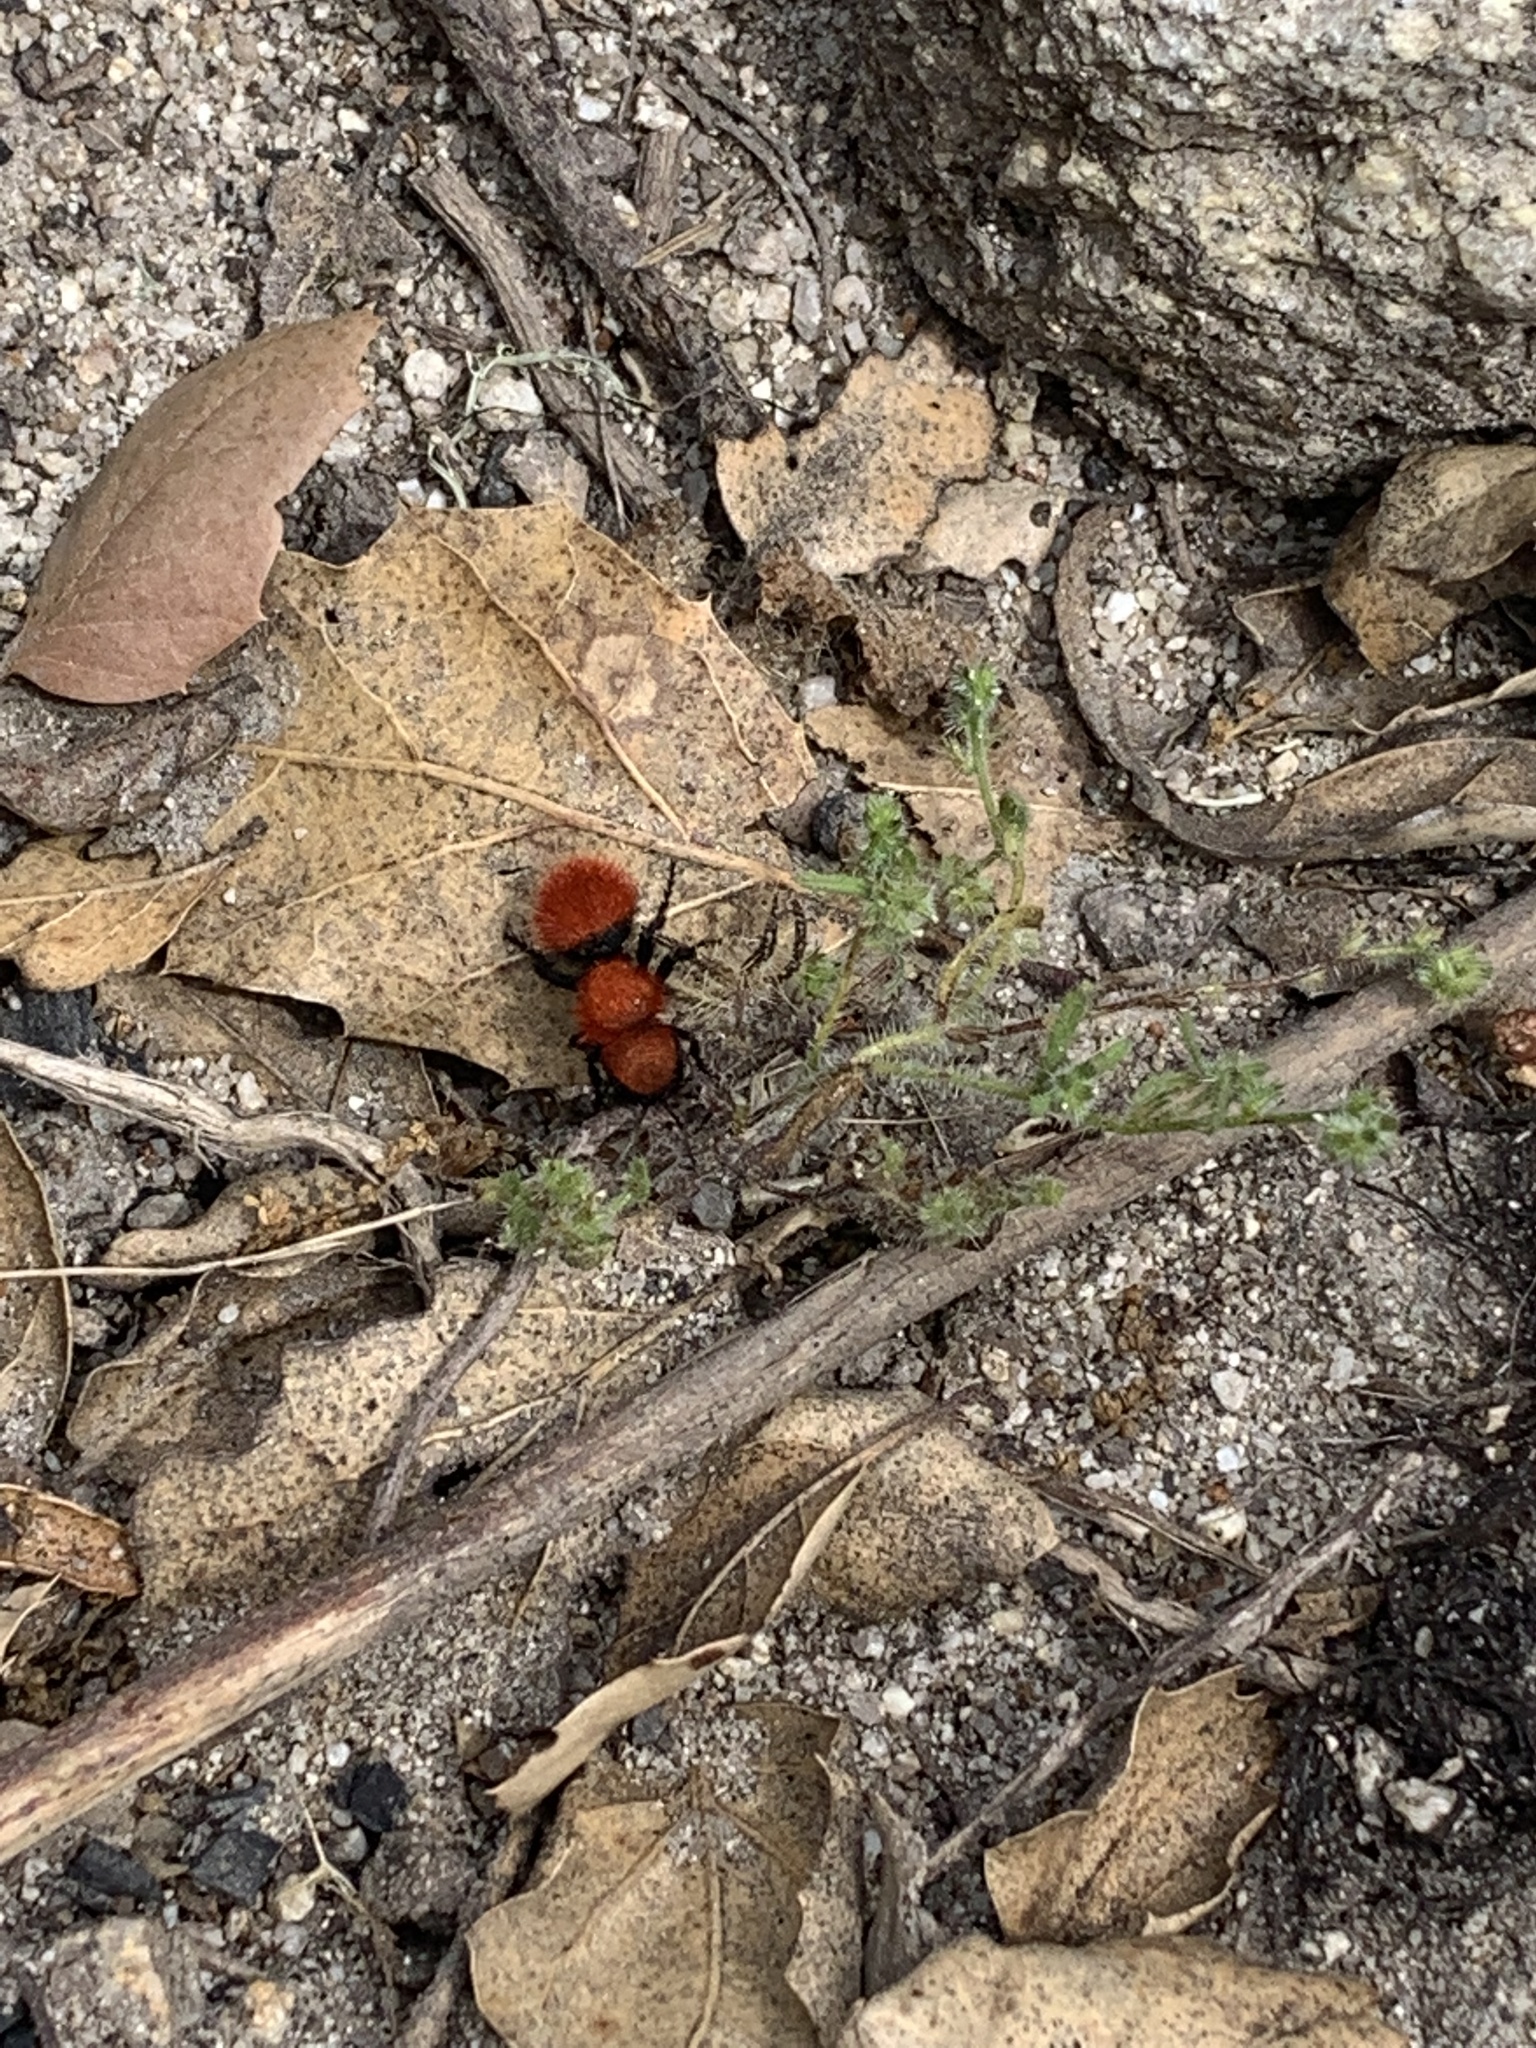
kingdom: Animalia
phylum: Arthropoda
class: Insecta
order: Hymenoptera
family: Mutillidae
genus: Dasymutilla
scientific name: Dasymutilla
